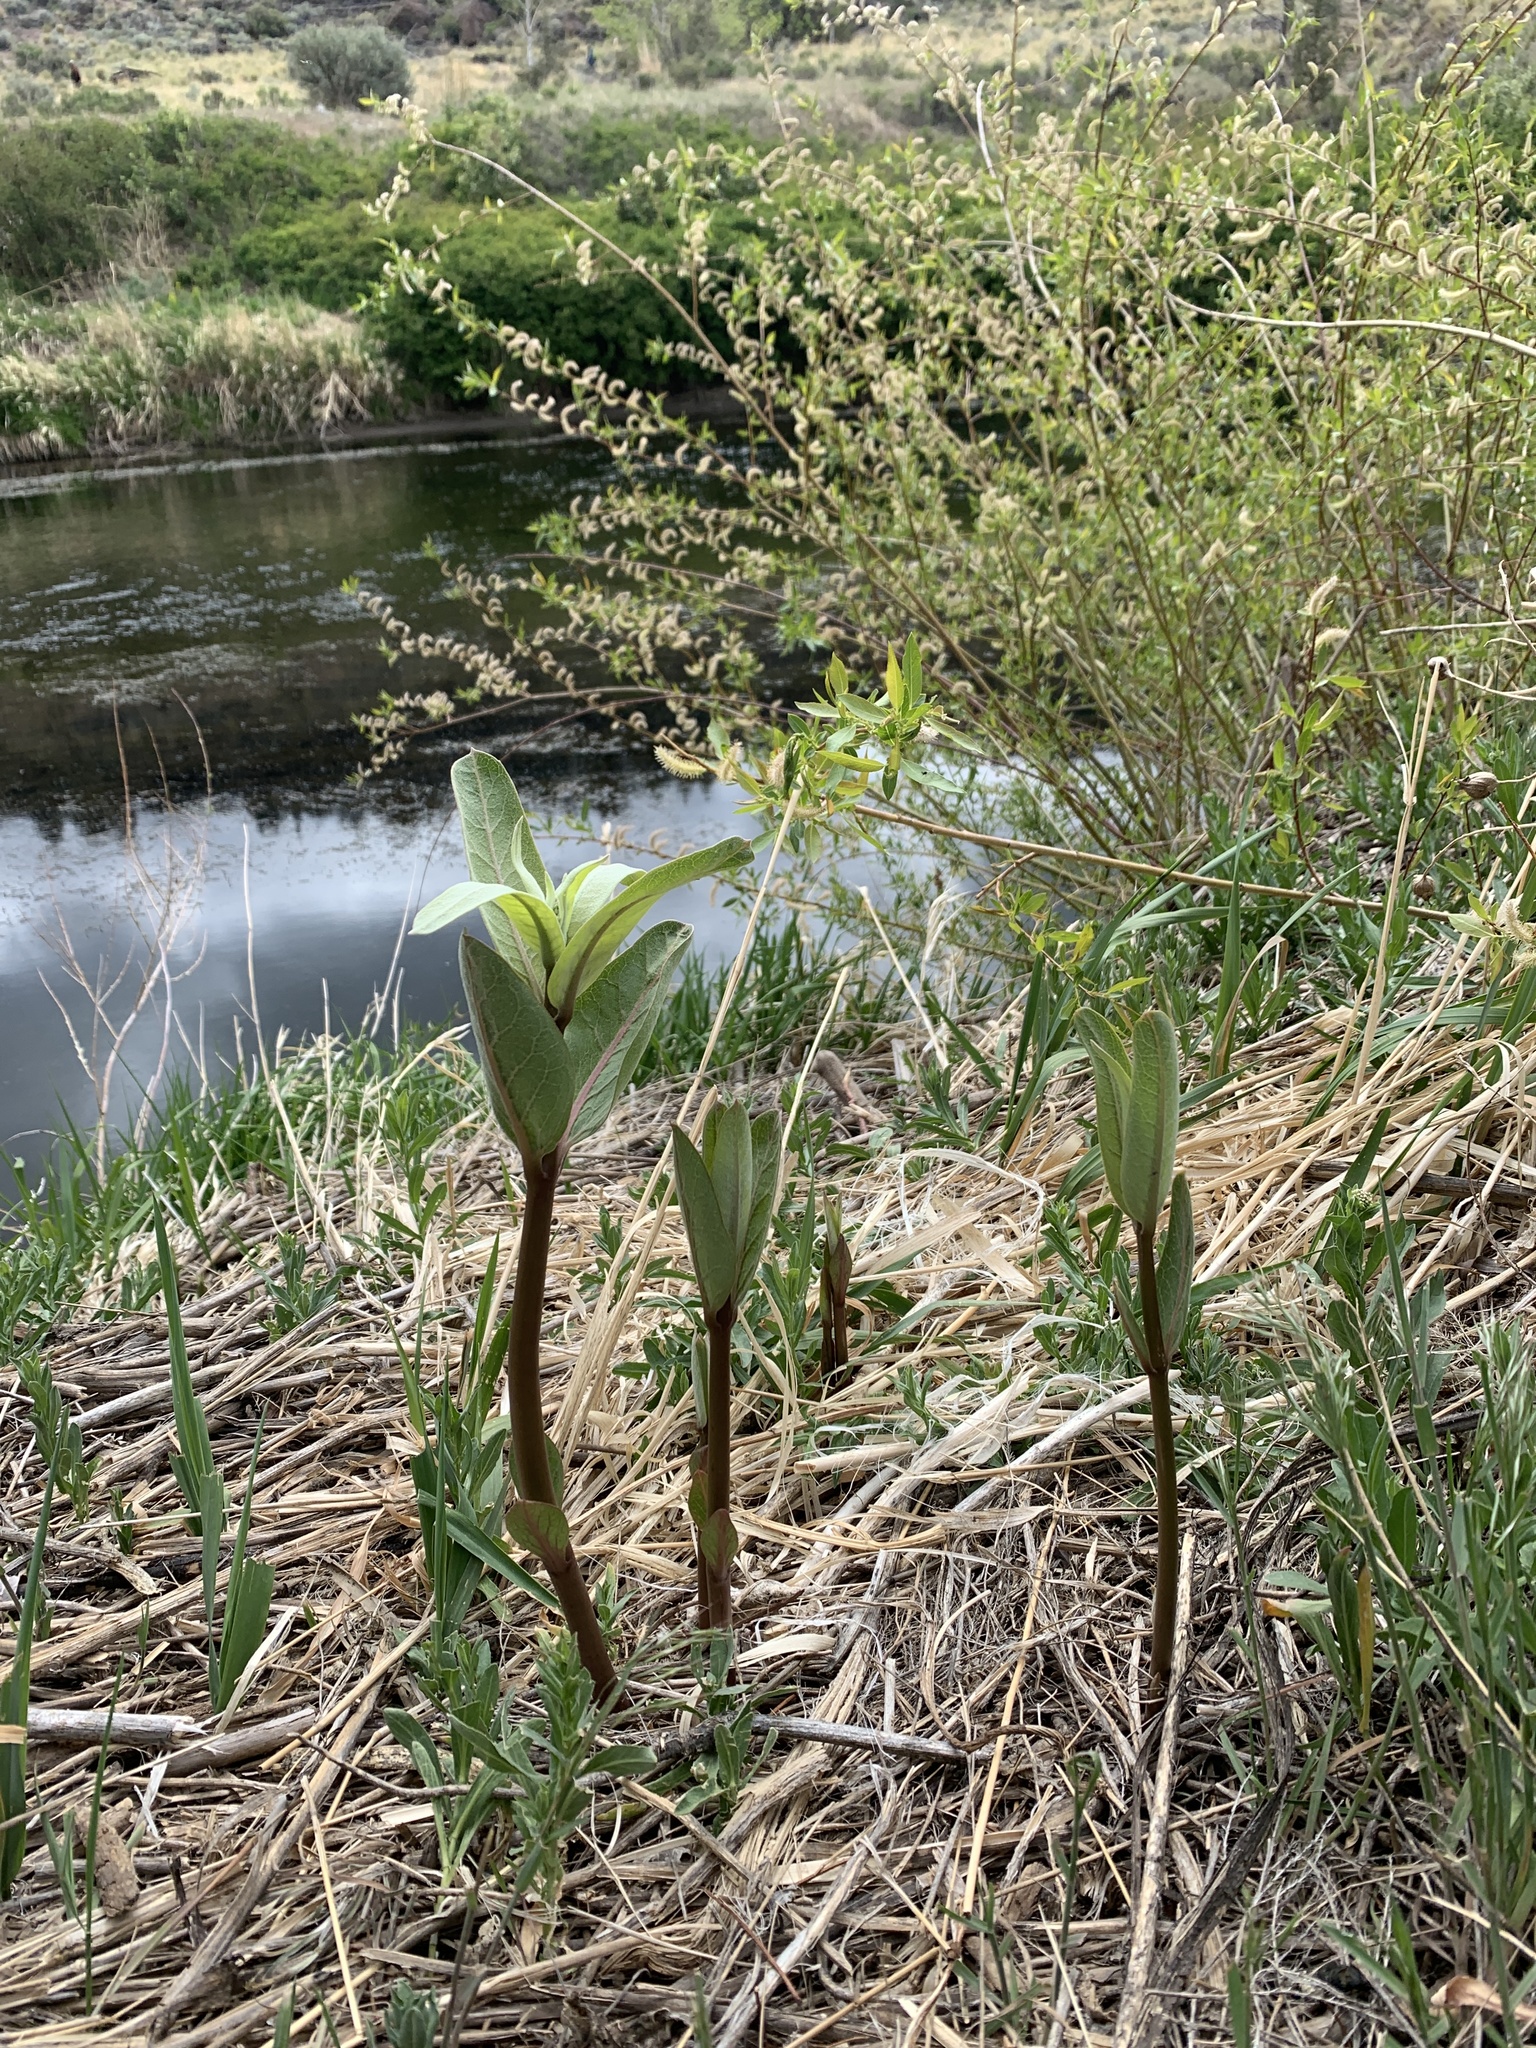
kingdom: Plantae
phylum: Tracheophyta
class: Magnoliopsida
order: Gentianales
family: Apocynaceae
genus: Asclepias
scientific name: Asclepias speciosa
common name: Showy milkweed
